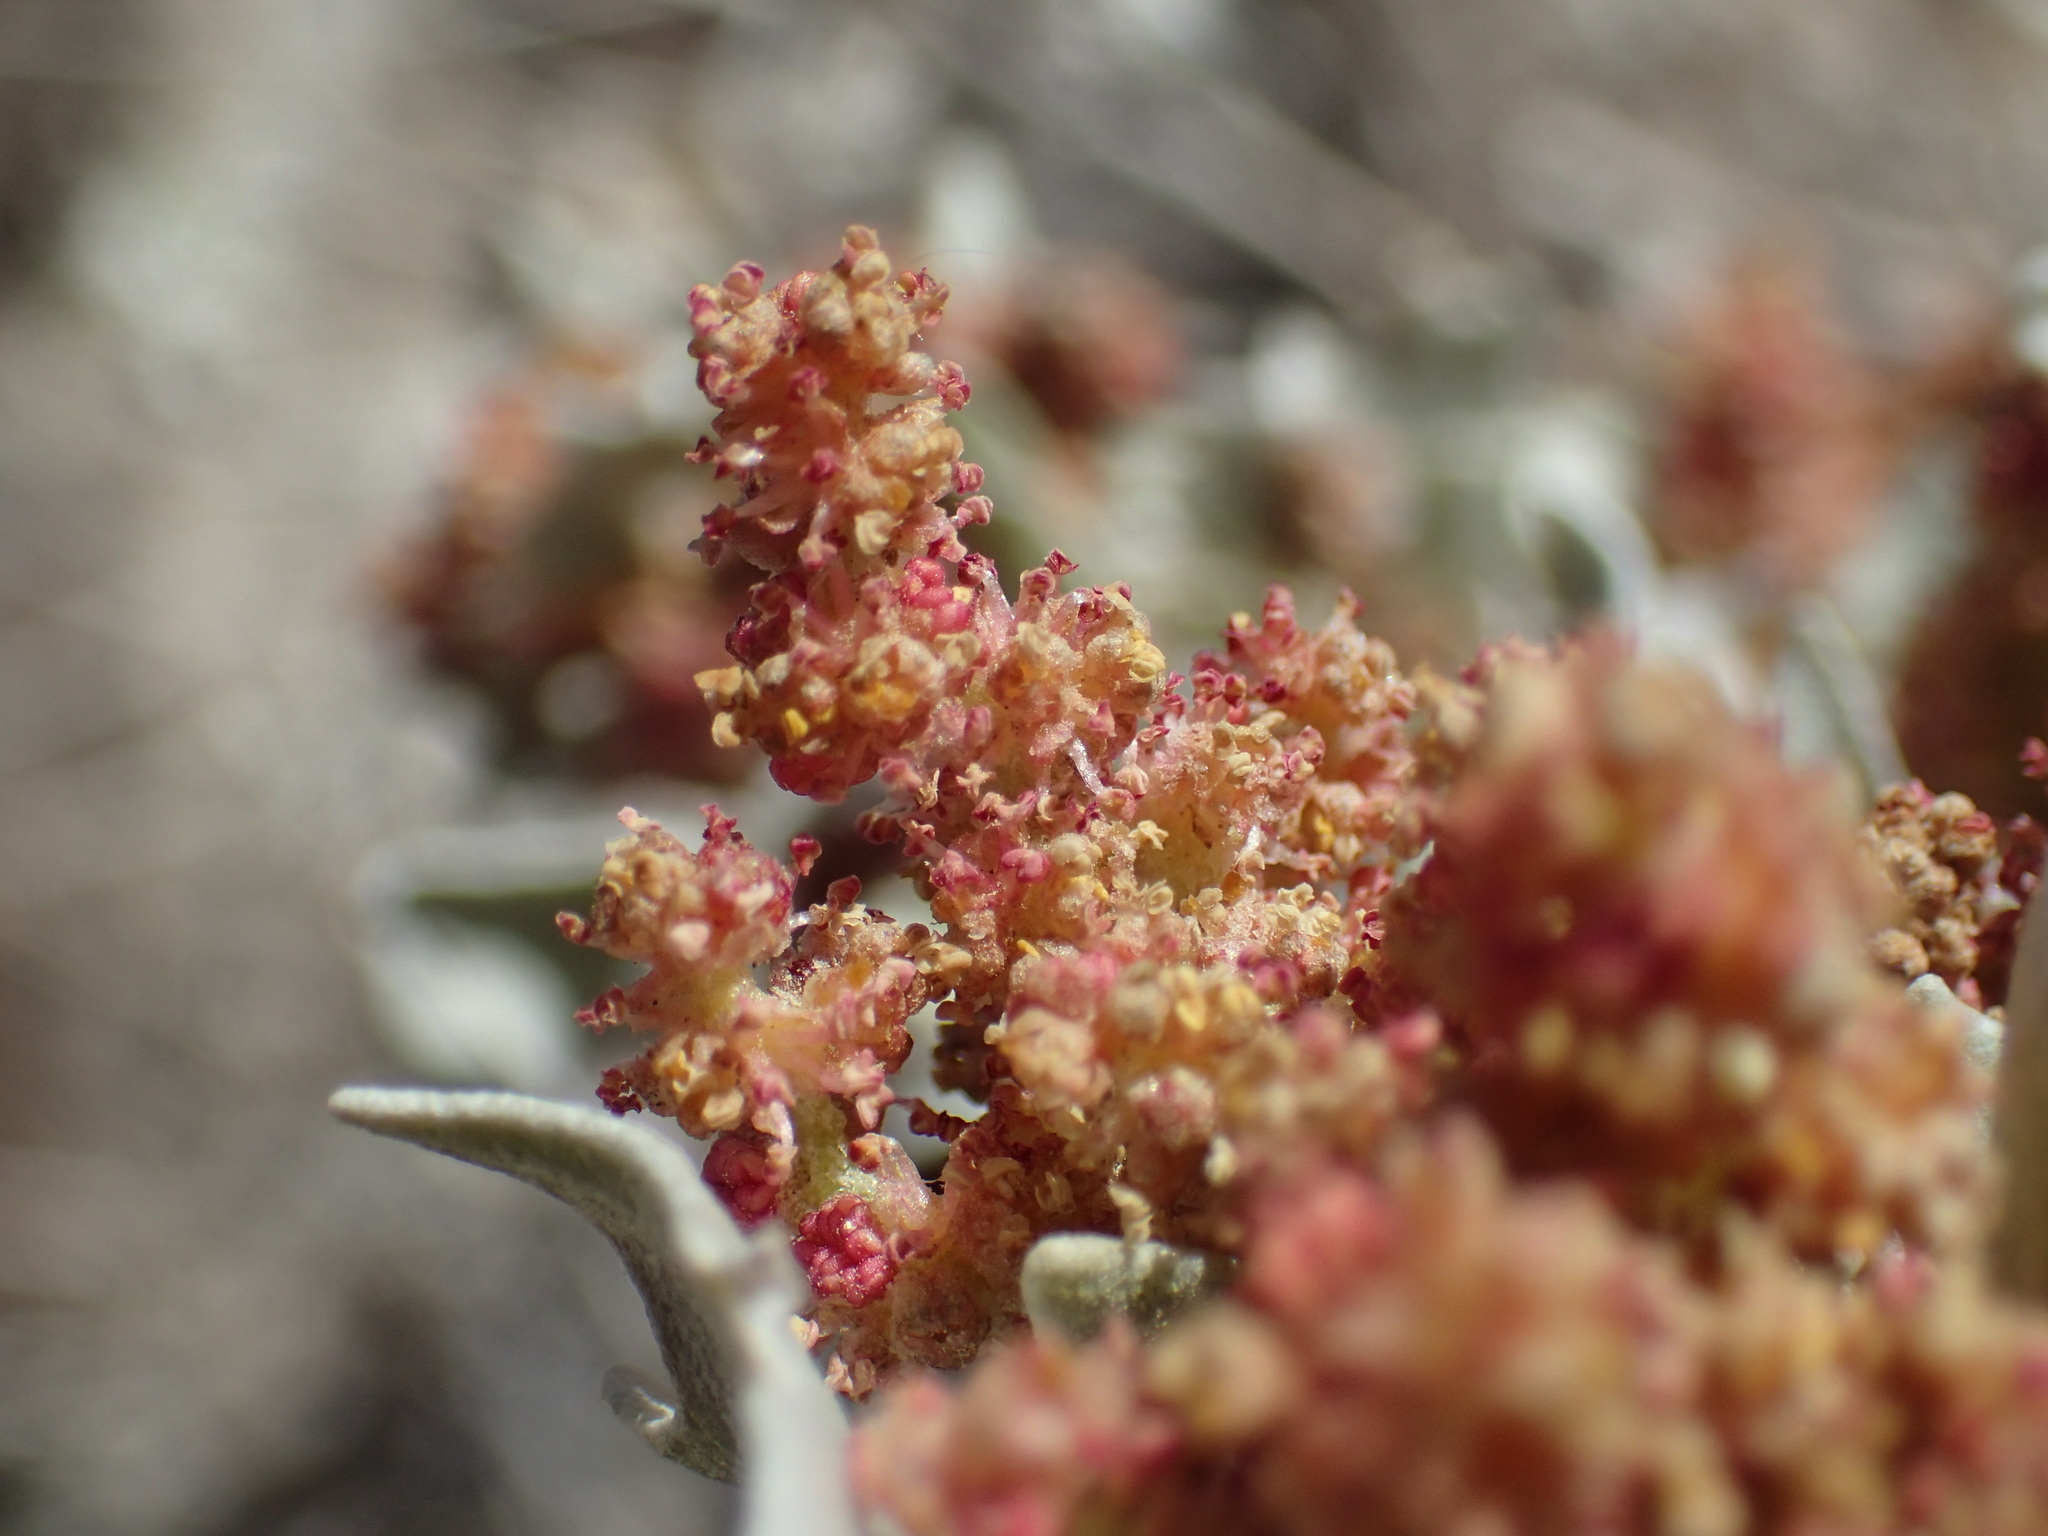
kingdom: Plantae
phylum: Tracheophyta
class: Magnoliopsida
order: Caryophyllales
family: Amaranthaceae
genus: Atriplex
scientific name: Atriplex hymenelytra
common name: Desert-holly
